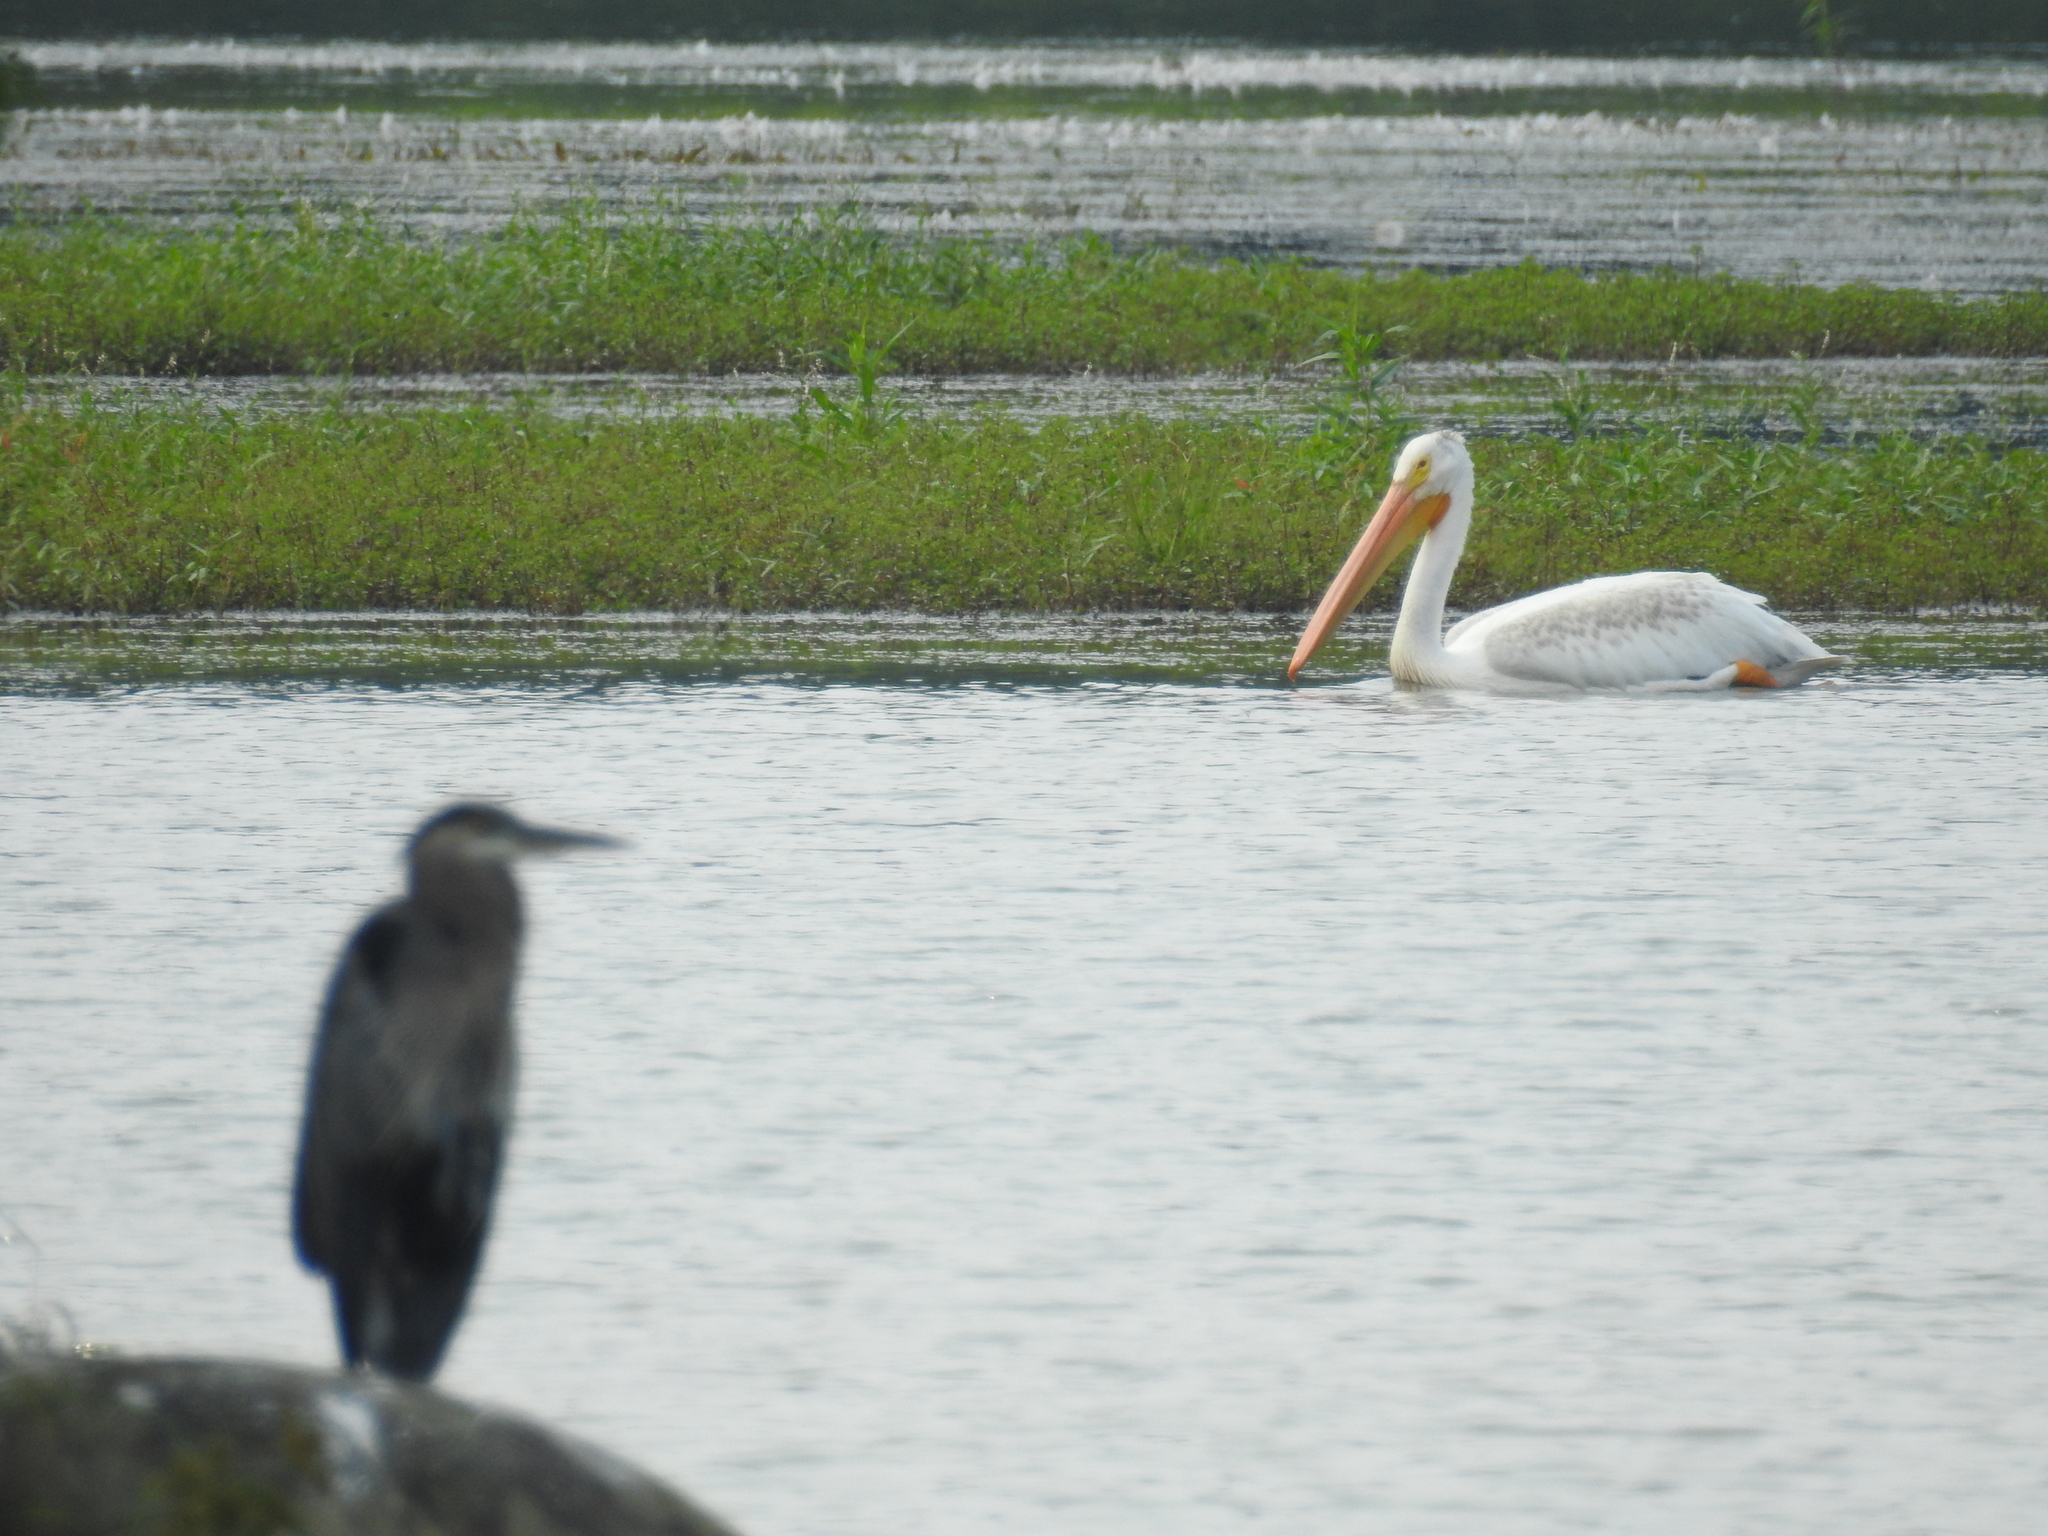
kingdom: Animalia
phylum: Chordata
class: Aves
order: Pelecaniformes
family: Ardeidae
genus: Ardea
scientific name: Ardea herodias
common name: Great blue heron
